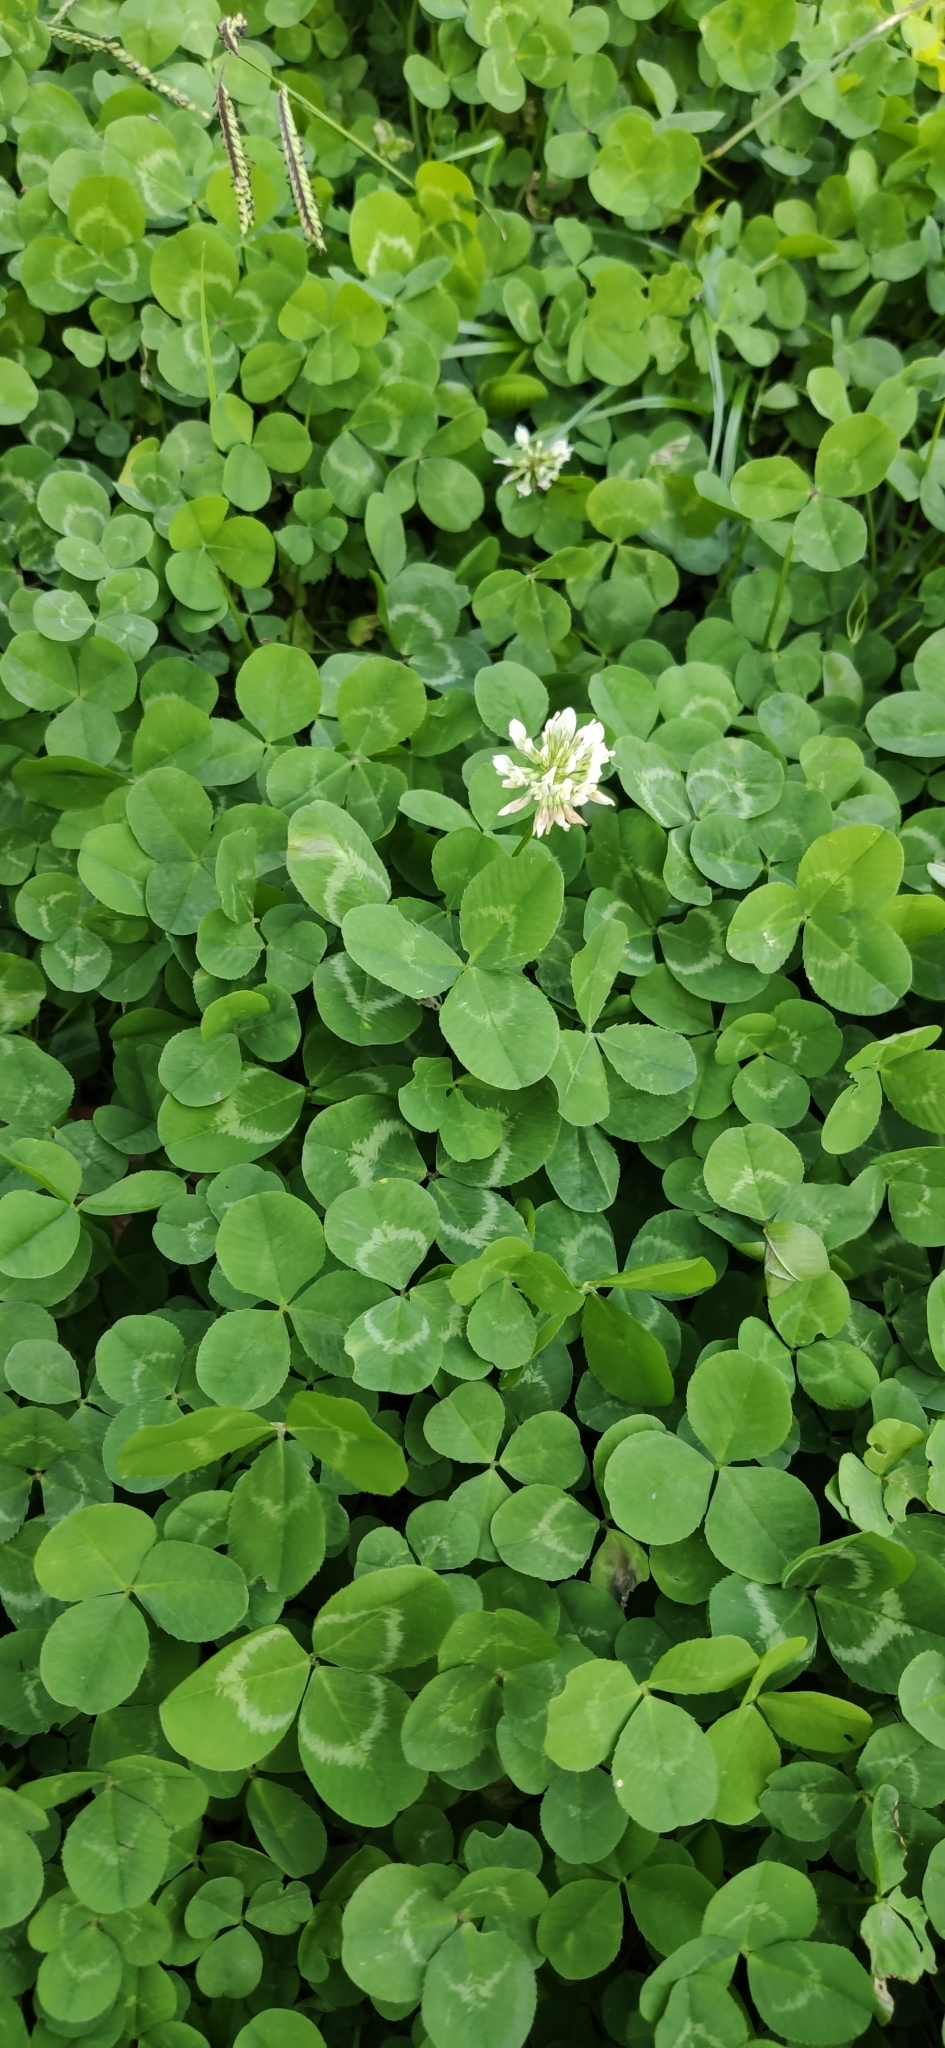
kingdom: Plantae
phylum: Tracheophyta
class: Magnoliopsida
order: Fabales
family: Fabaceae
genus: Trifolium
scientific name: Trifolium repens
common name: White clover
